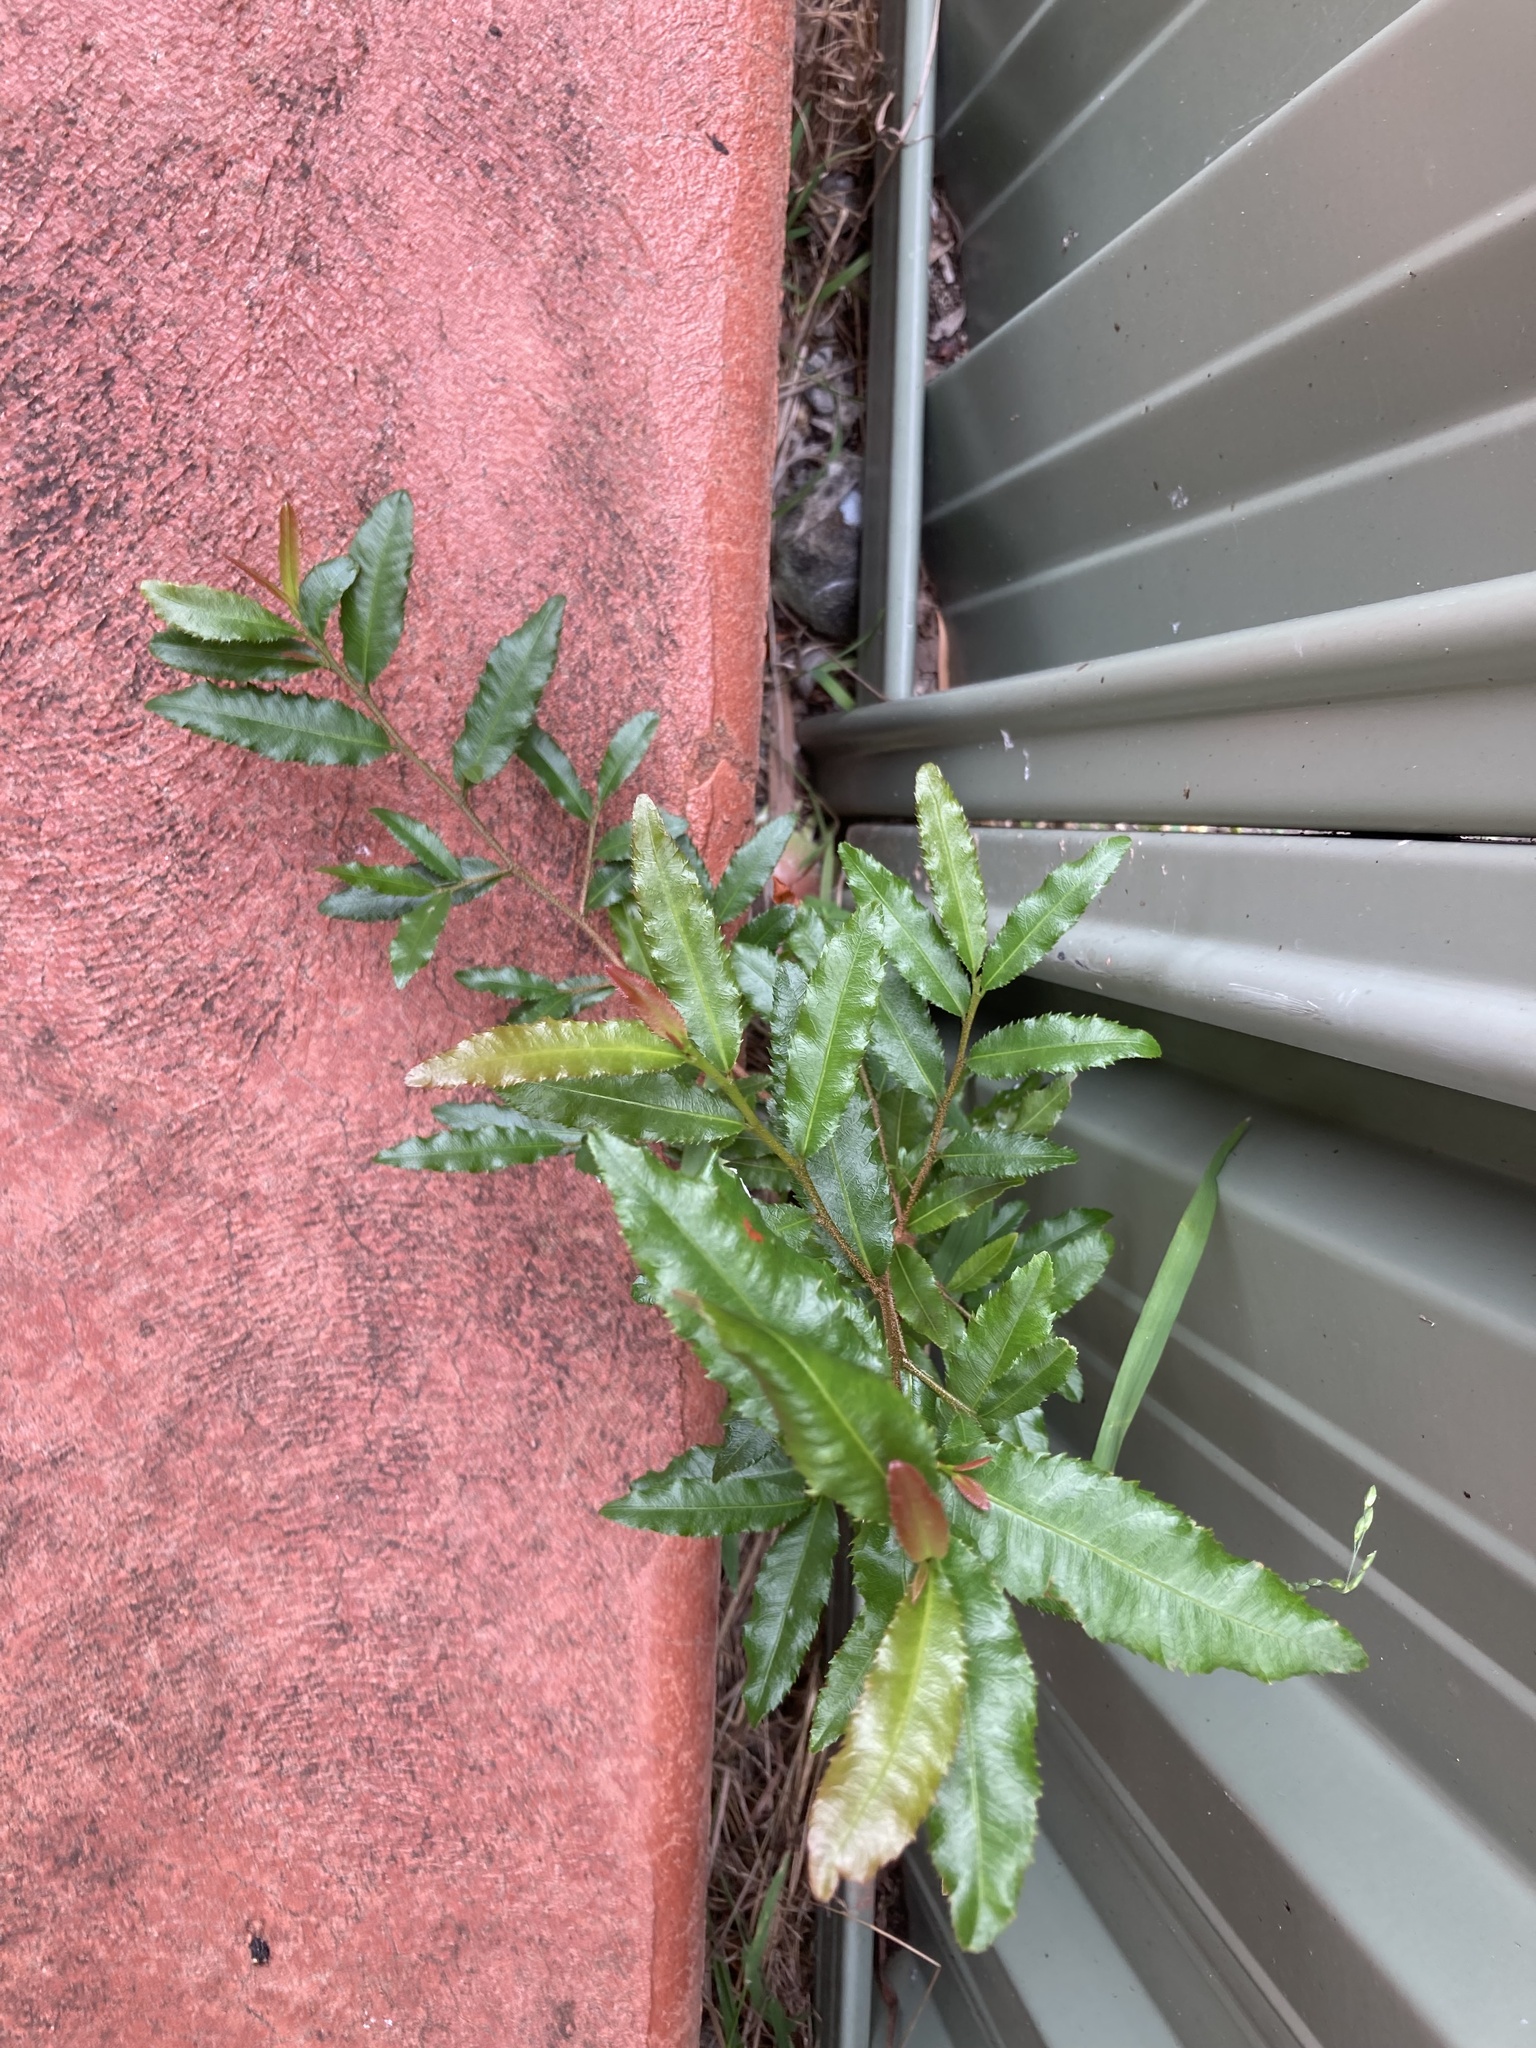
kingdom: Plantae
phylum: Tracheophyta
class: Magnoliopsida
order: Malpighiales
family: Ochnaceae
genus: Ochna
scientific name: Ochna serrulata
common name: Mickey mouse plant
